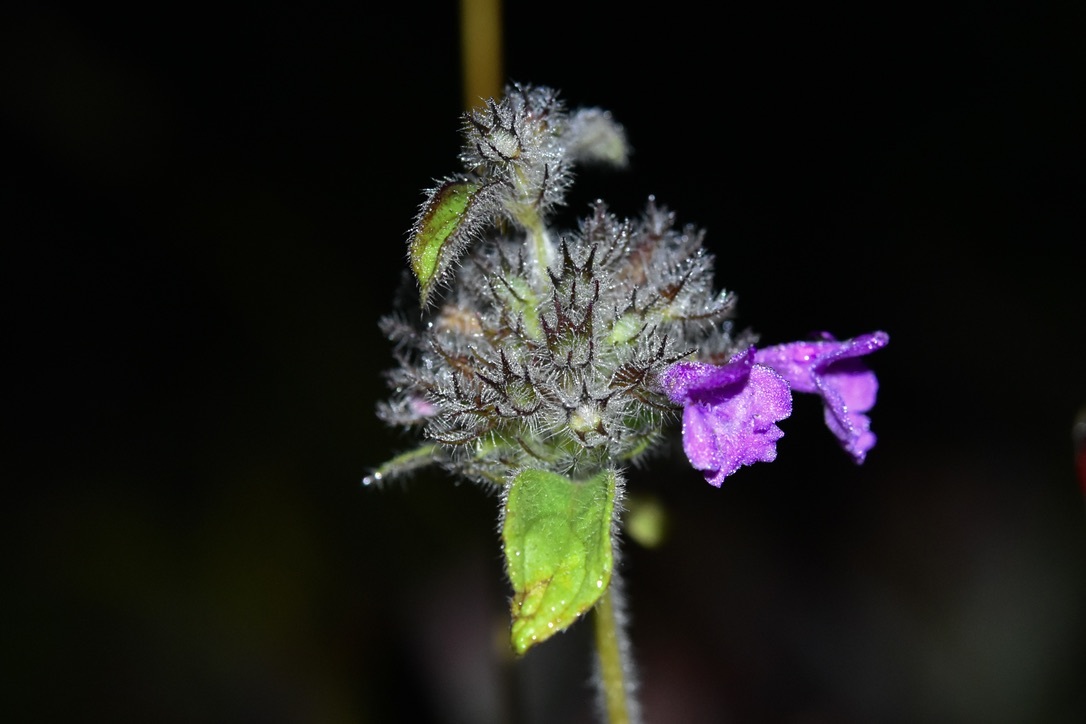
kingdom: Plantae
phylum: Tracheophyta
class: Magnoliopsida
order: Lamiales
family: Lamiaceae
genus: Clinopodium
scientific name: Clinopodium vulgare
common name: Wild basil
